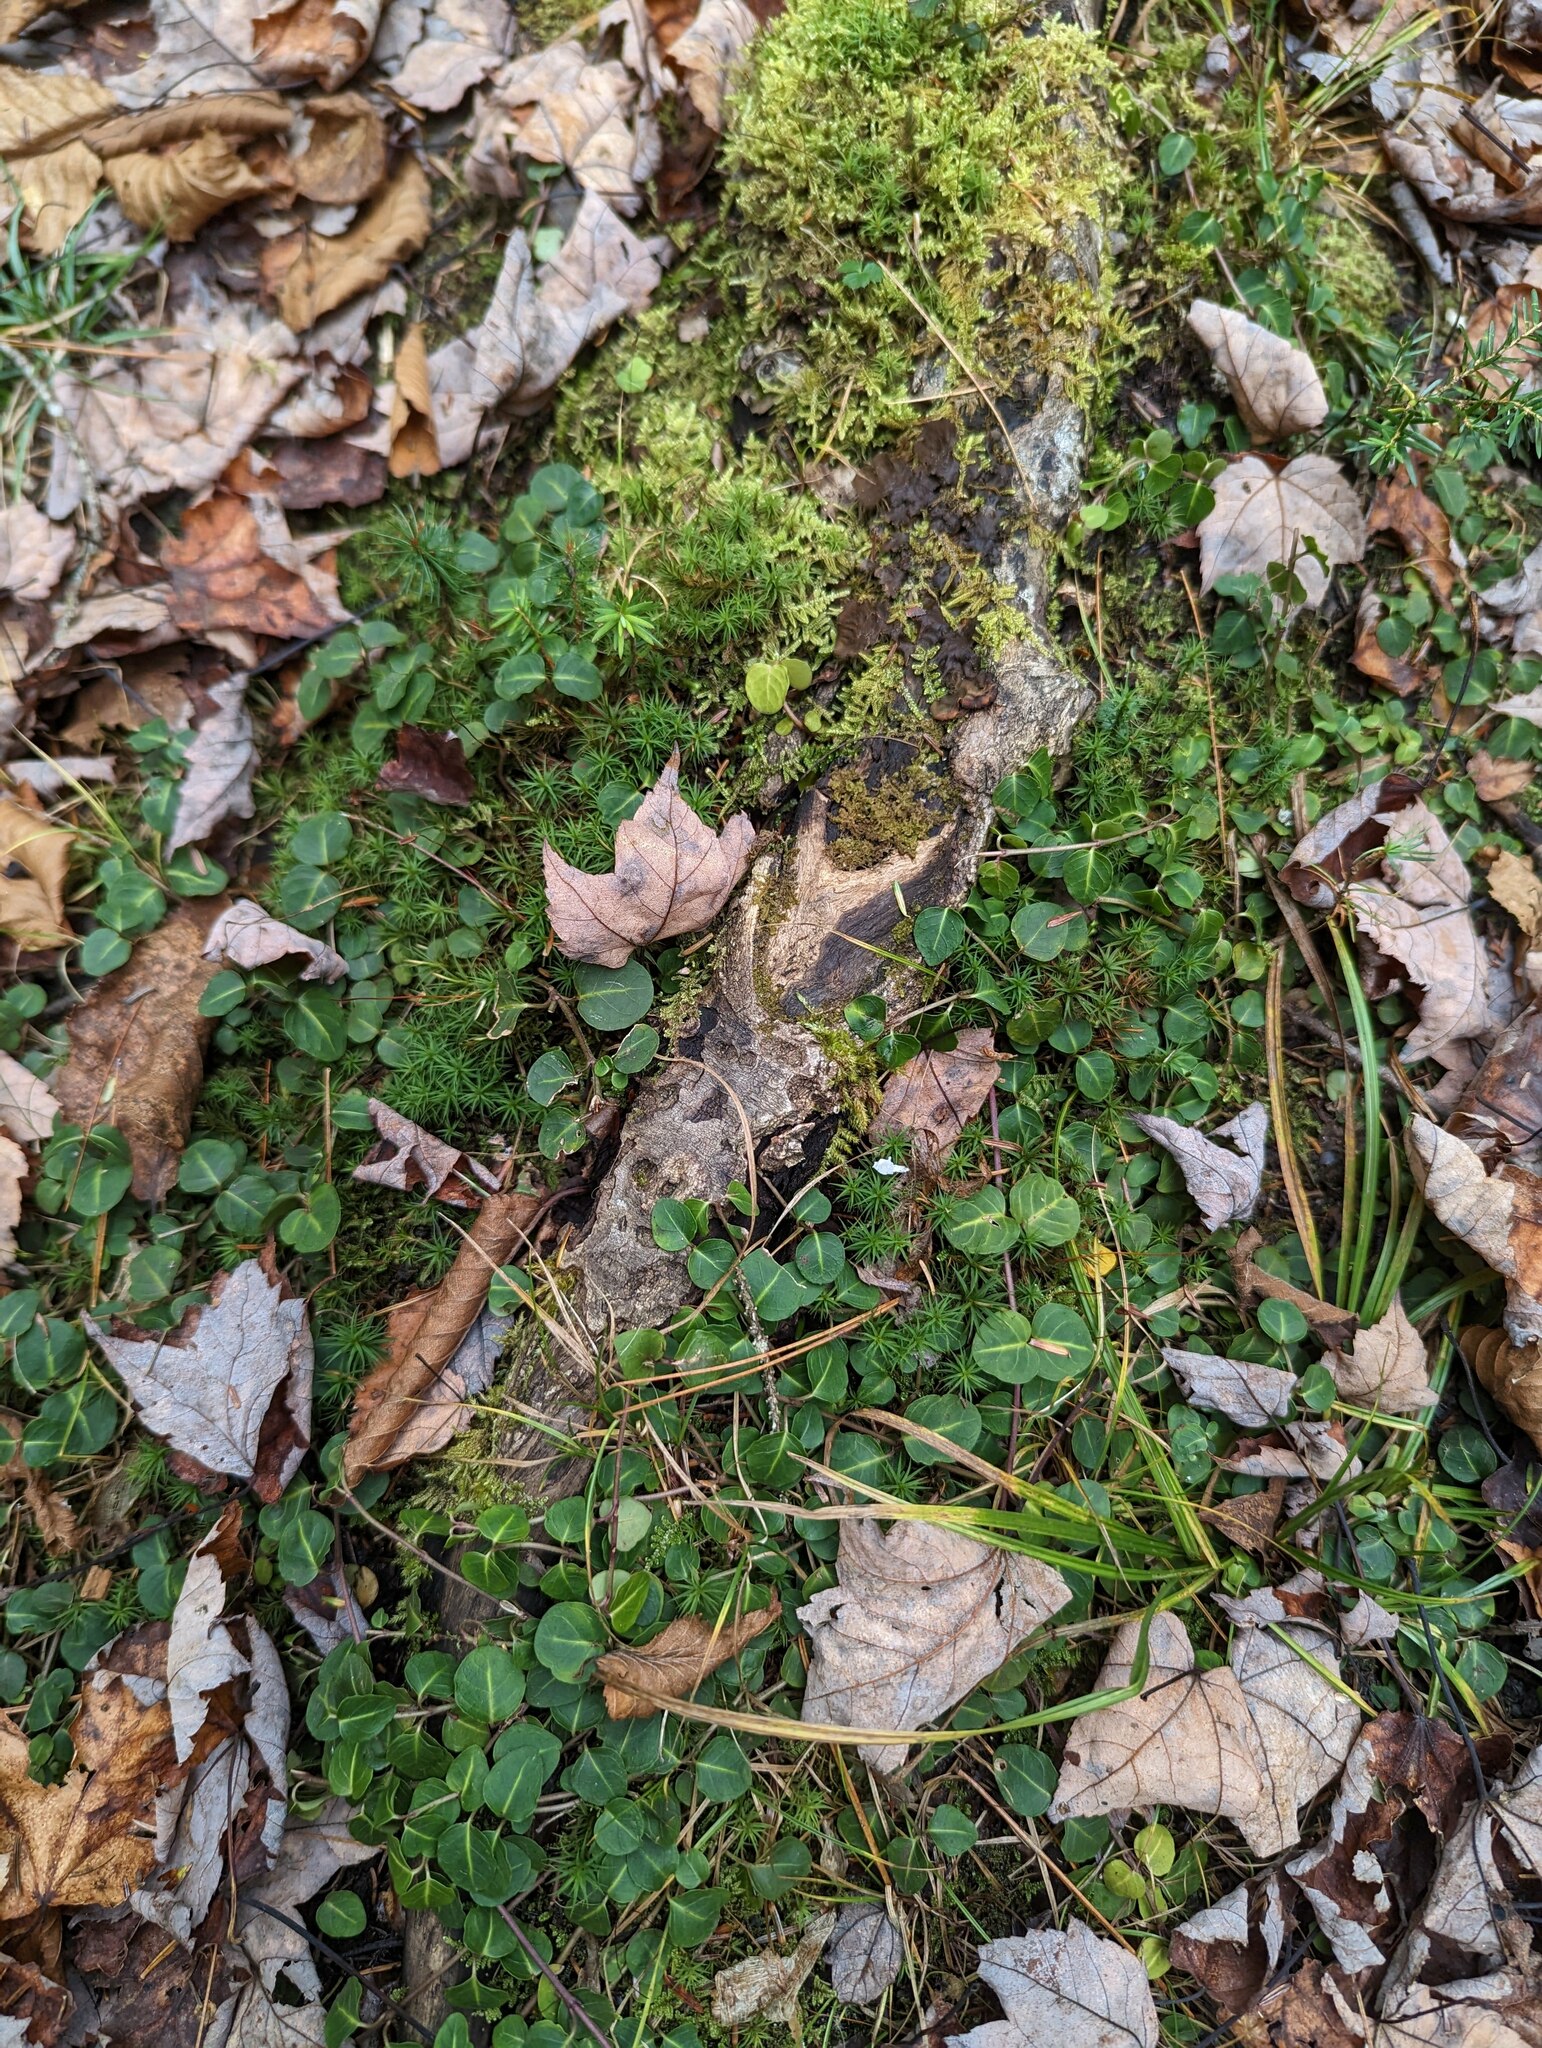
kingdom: Plantae
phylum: Tracheophyta
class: Magnoliopsida
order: Gentianales
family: Rubiaceae
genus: Mitchella
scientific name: Mitchella repens
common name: Partridge-berry
